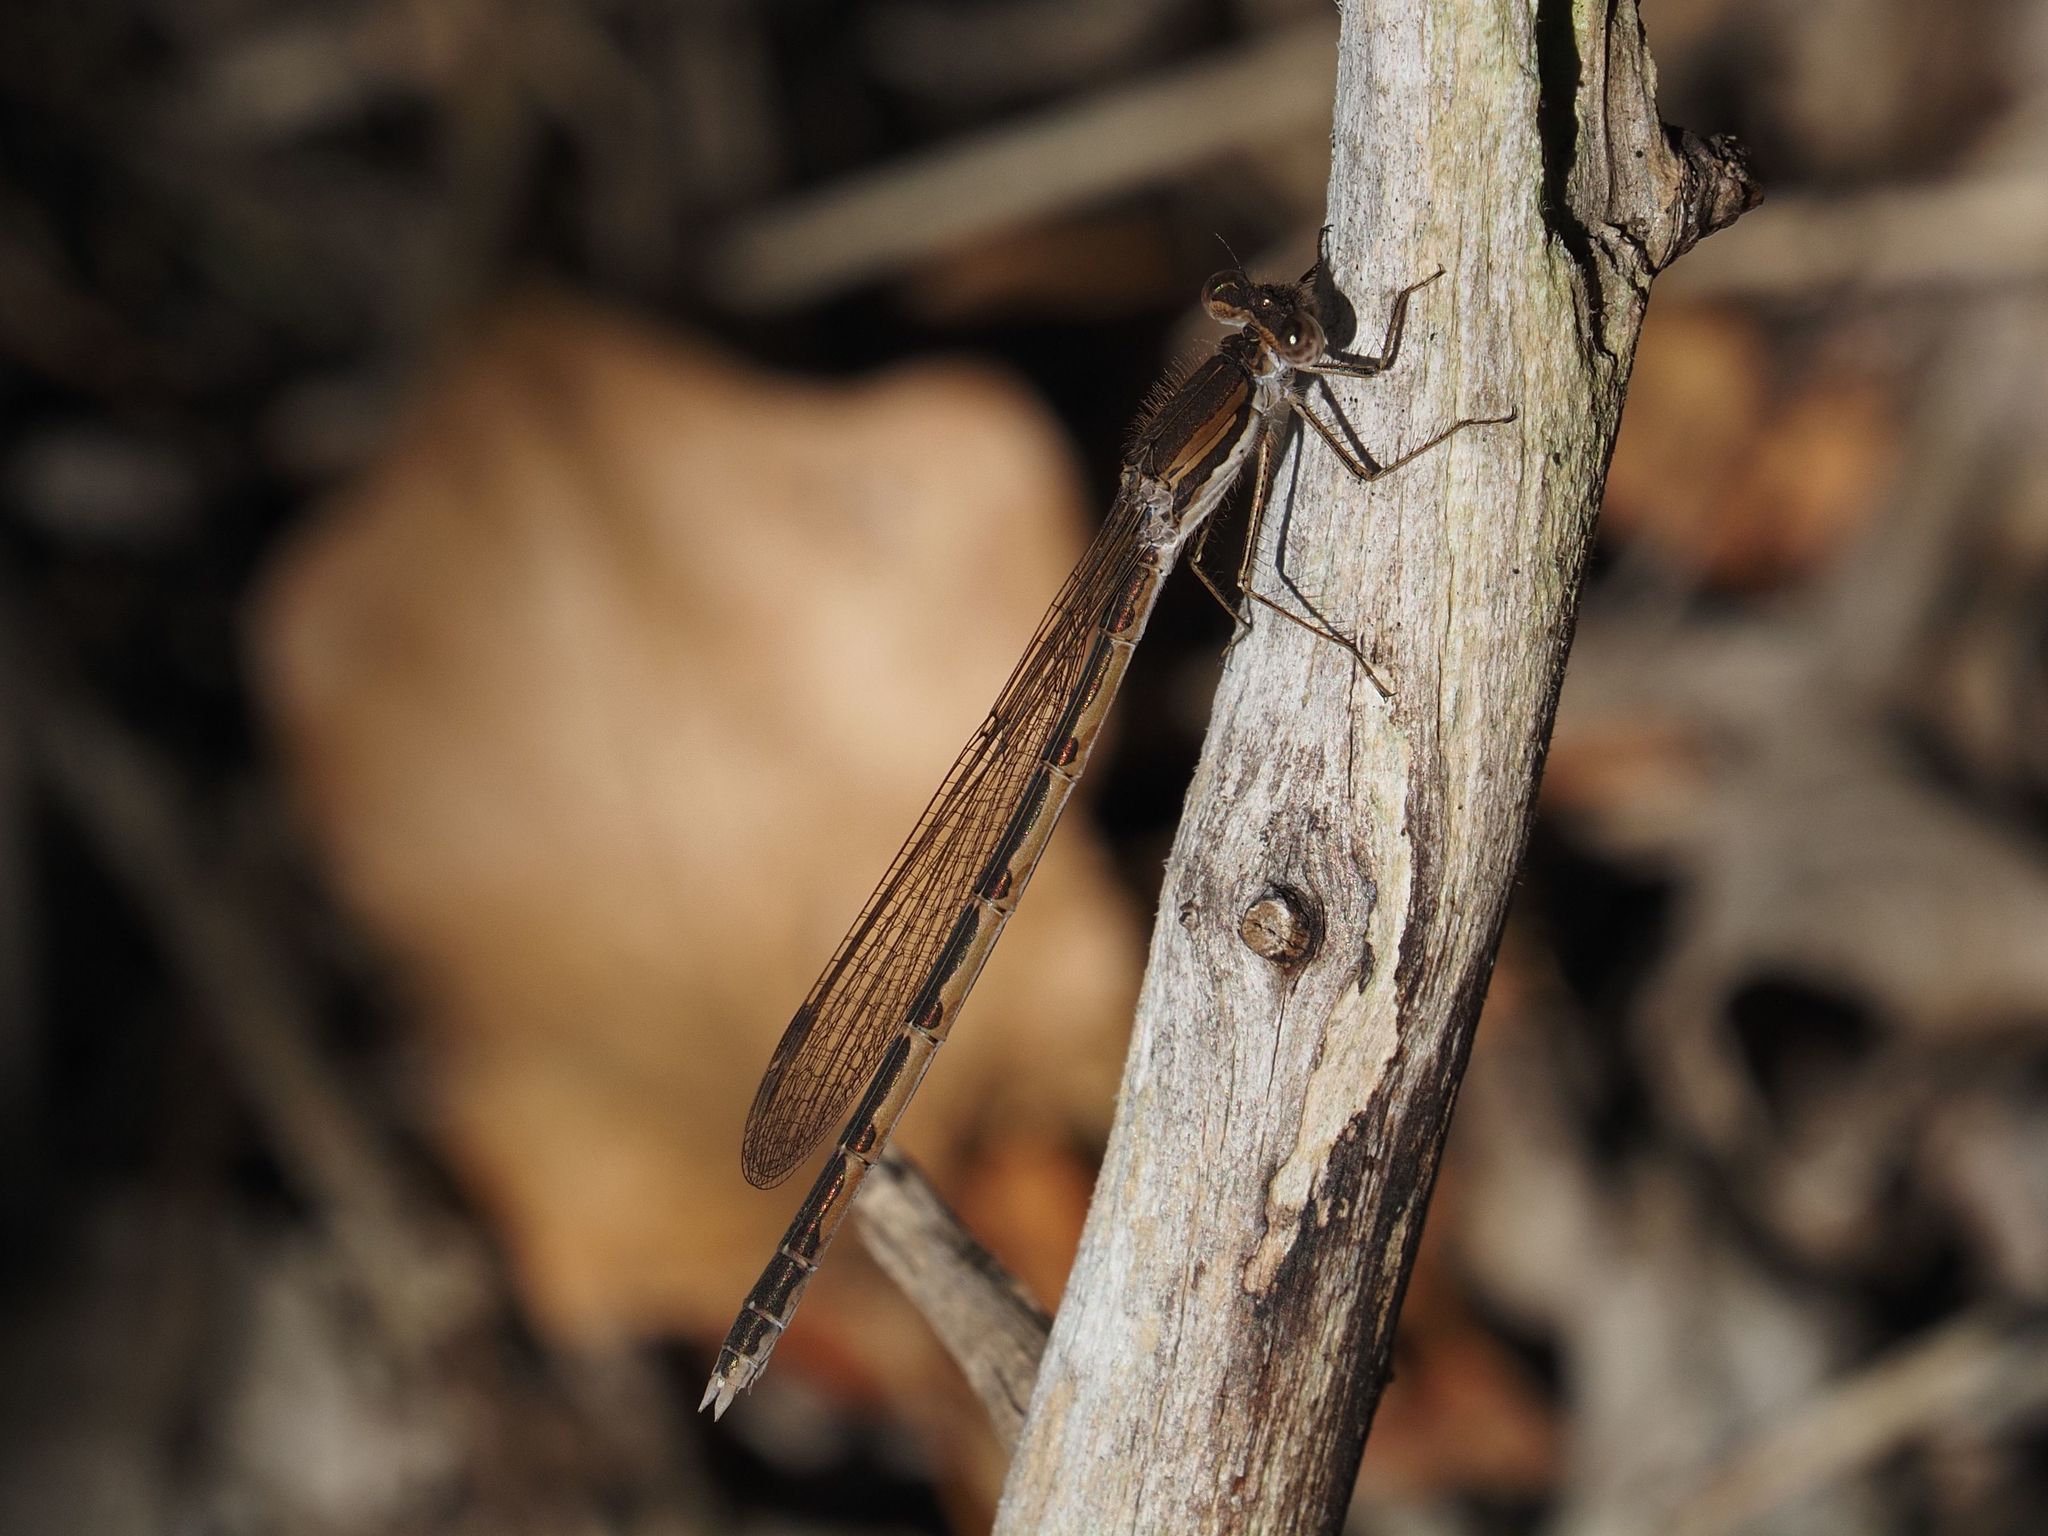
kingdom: Animalia
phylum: Arthropoda
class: Insecta
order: Odonata
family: Lestidae
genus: Sympecma
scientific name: Sympecma fusca
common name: Common winter damsel
